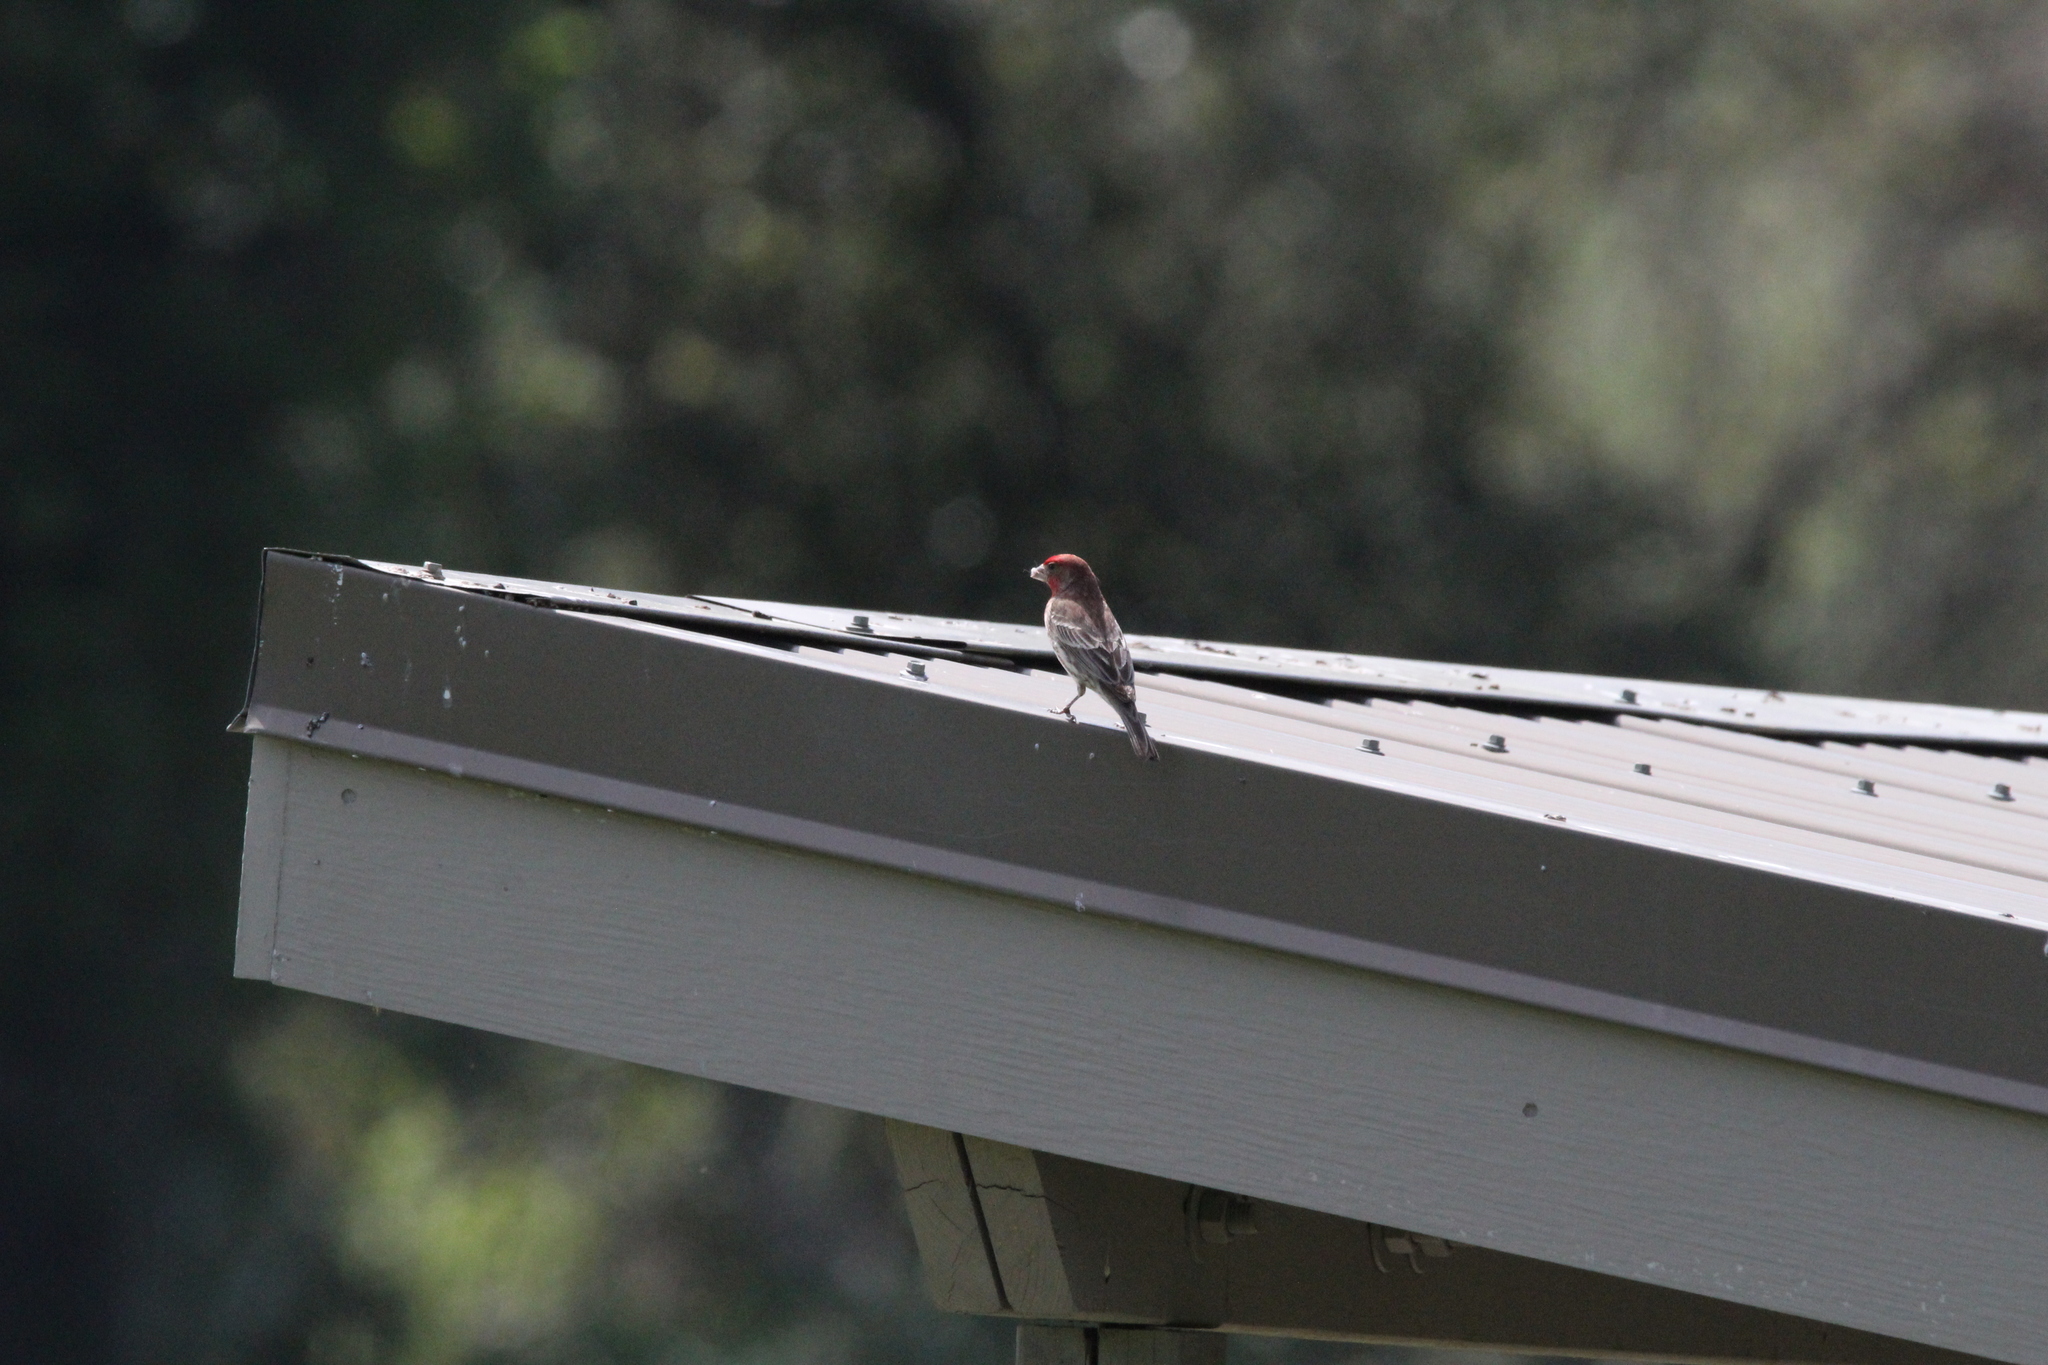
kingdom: Animalia
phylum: Chordata
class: Aves
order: Passeriformes
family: Fringillidae
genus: Haemorhous
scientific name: Haemorhous mexicanus
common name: House finch
